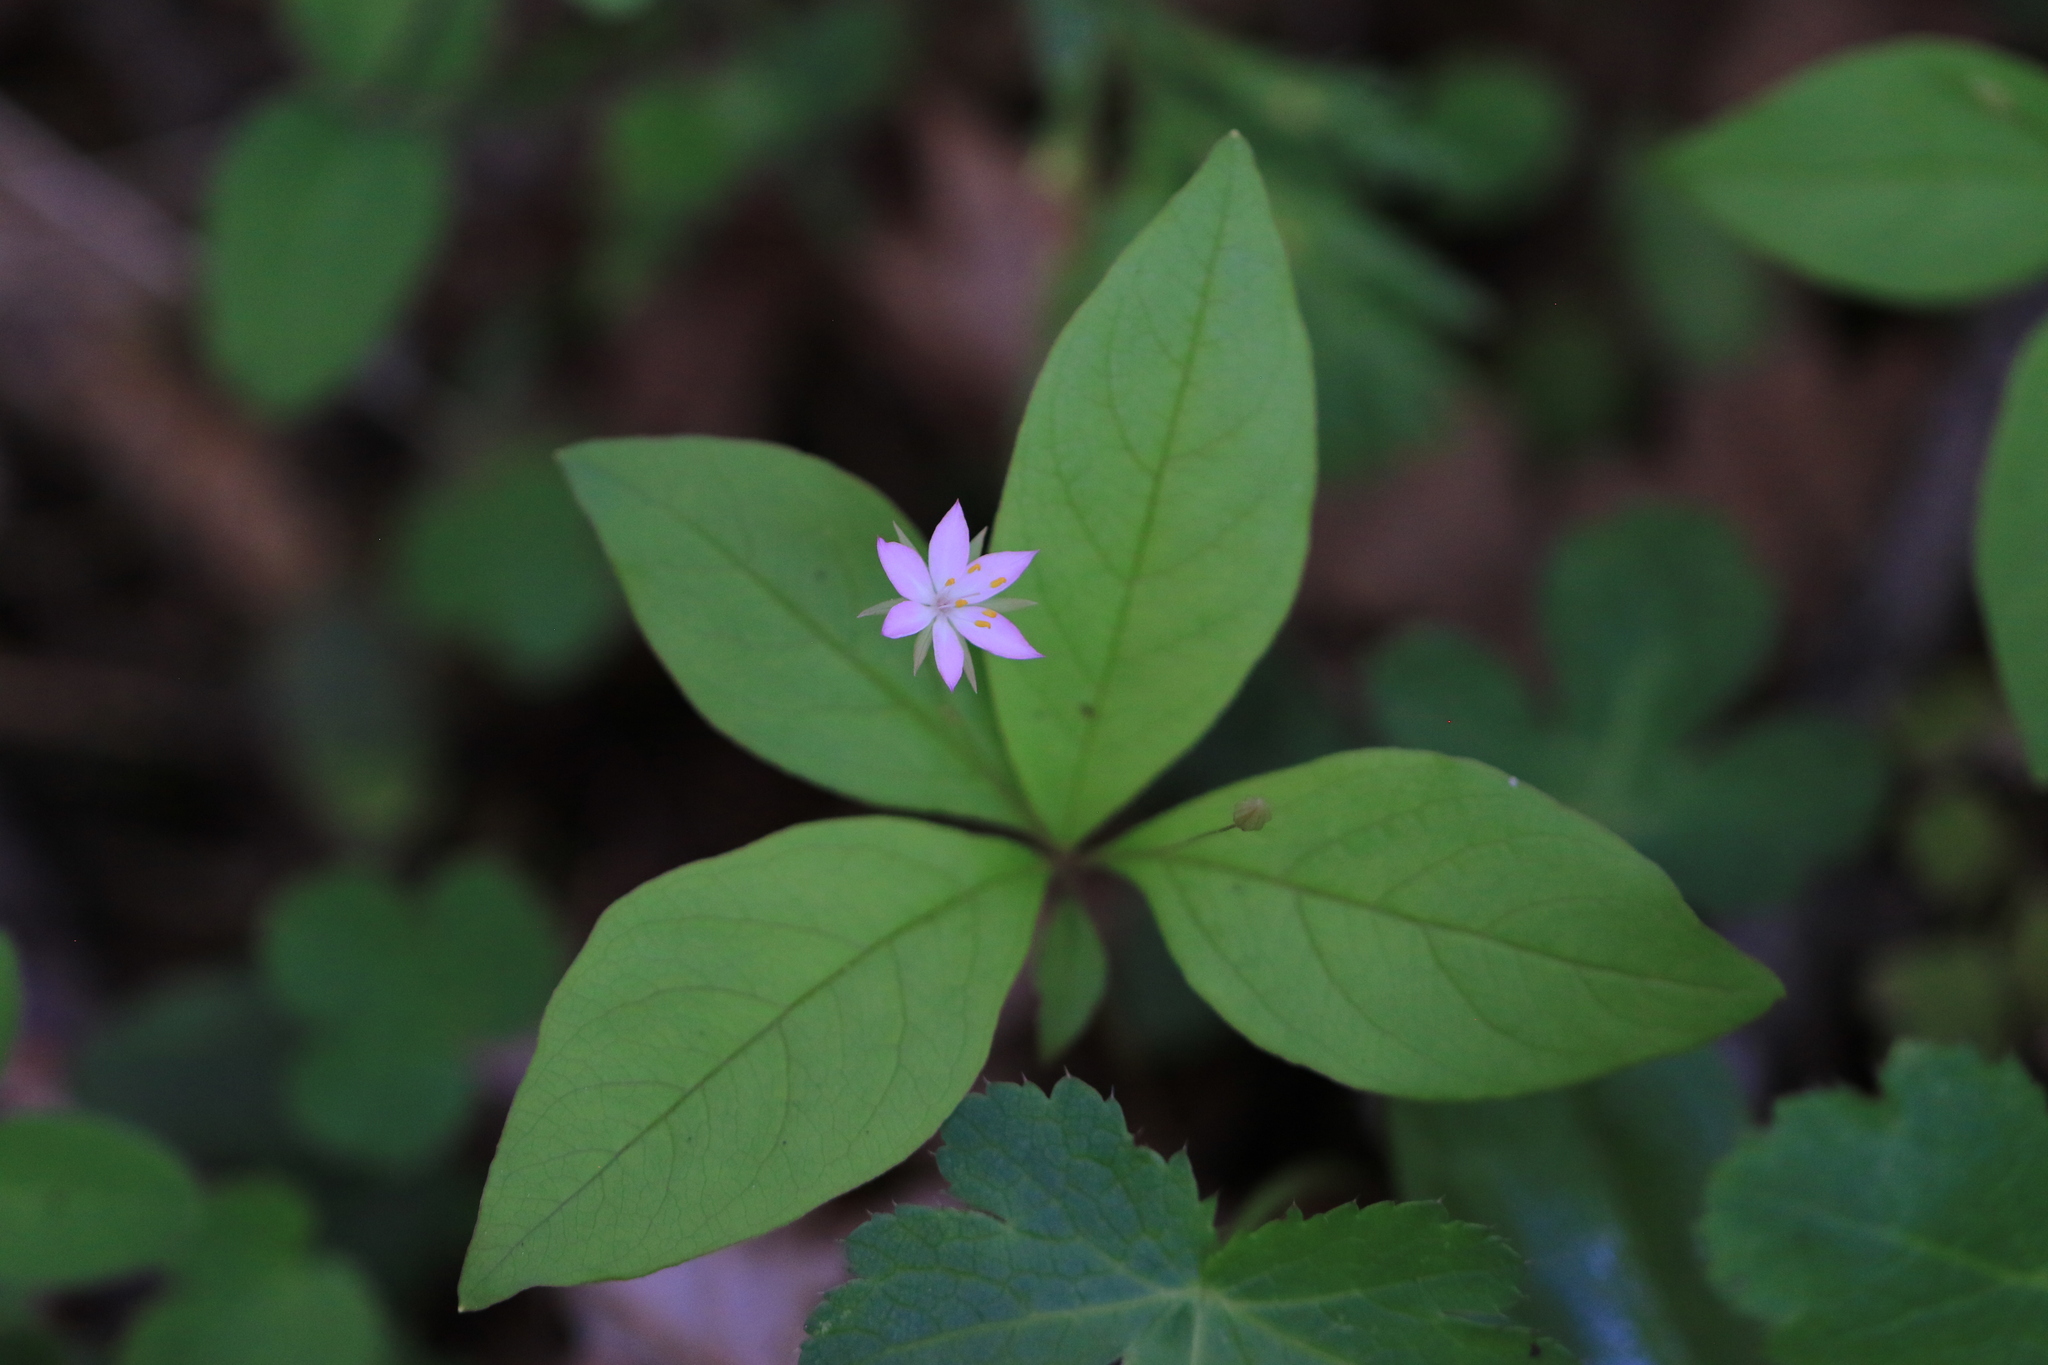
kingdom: Plantae
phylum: Tracheophyta
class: Magnoliopsida
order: Ericales
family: Primulaceae
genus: Lysimachia
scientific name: Lysimachia latifolia
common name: Pacific starflower
